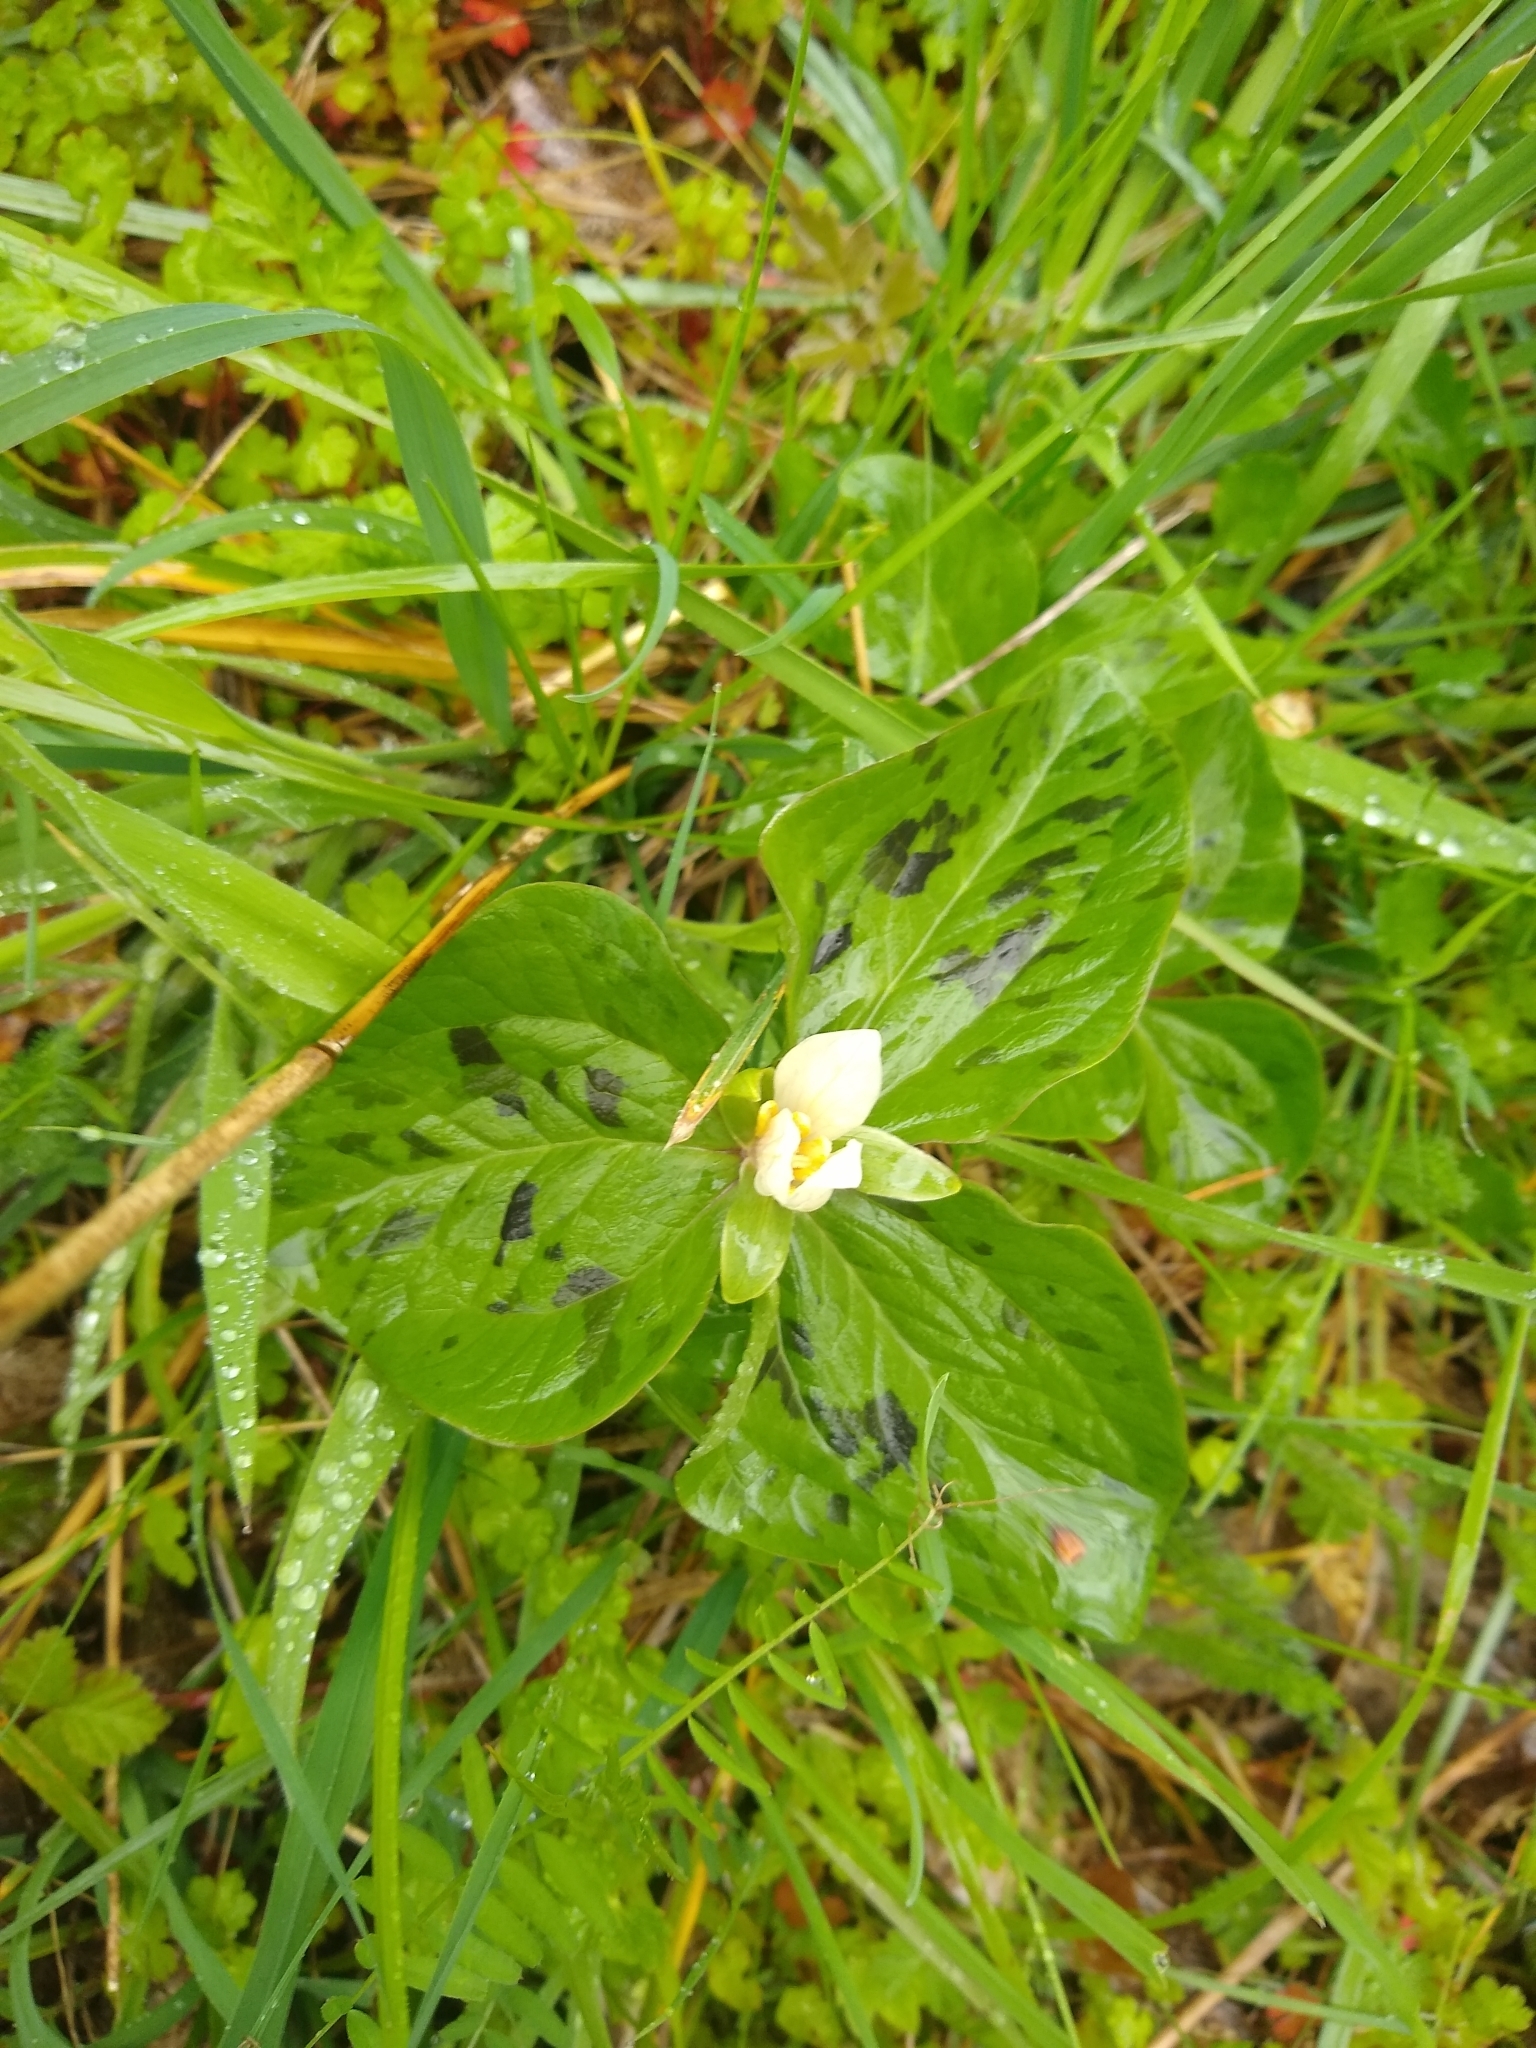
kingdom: Plantae
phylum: Tracheophyta
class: Liliopsida
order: Liliales
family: Melanthiaceae
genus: Trillium
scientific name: Trillium albidum
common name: Freeman's trillium
